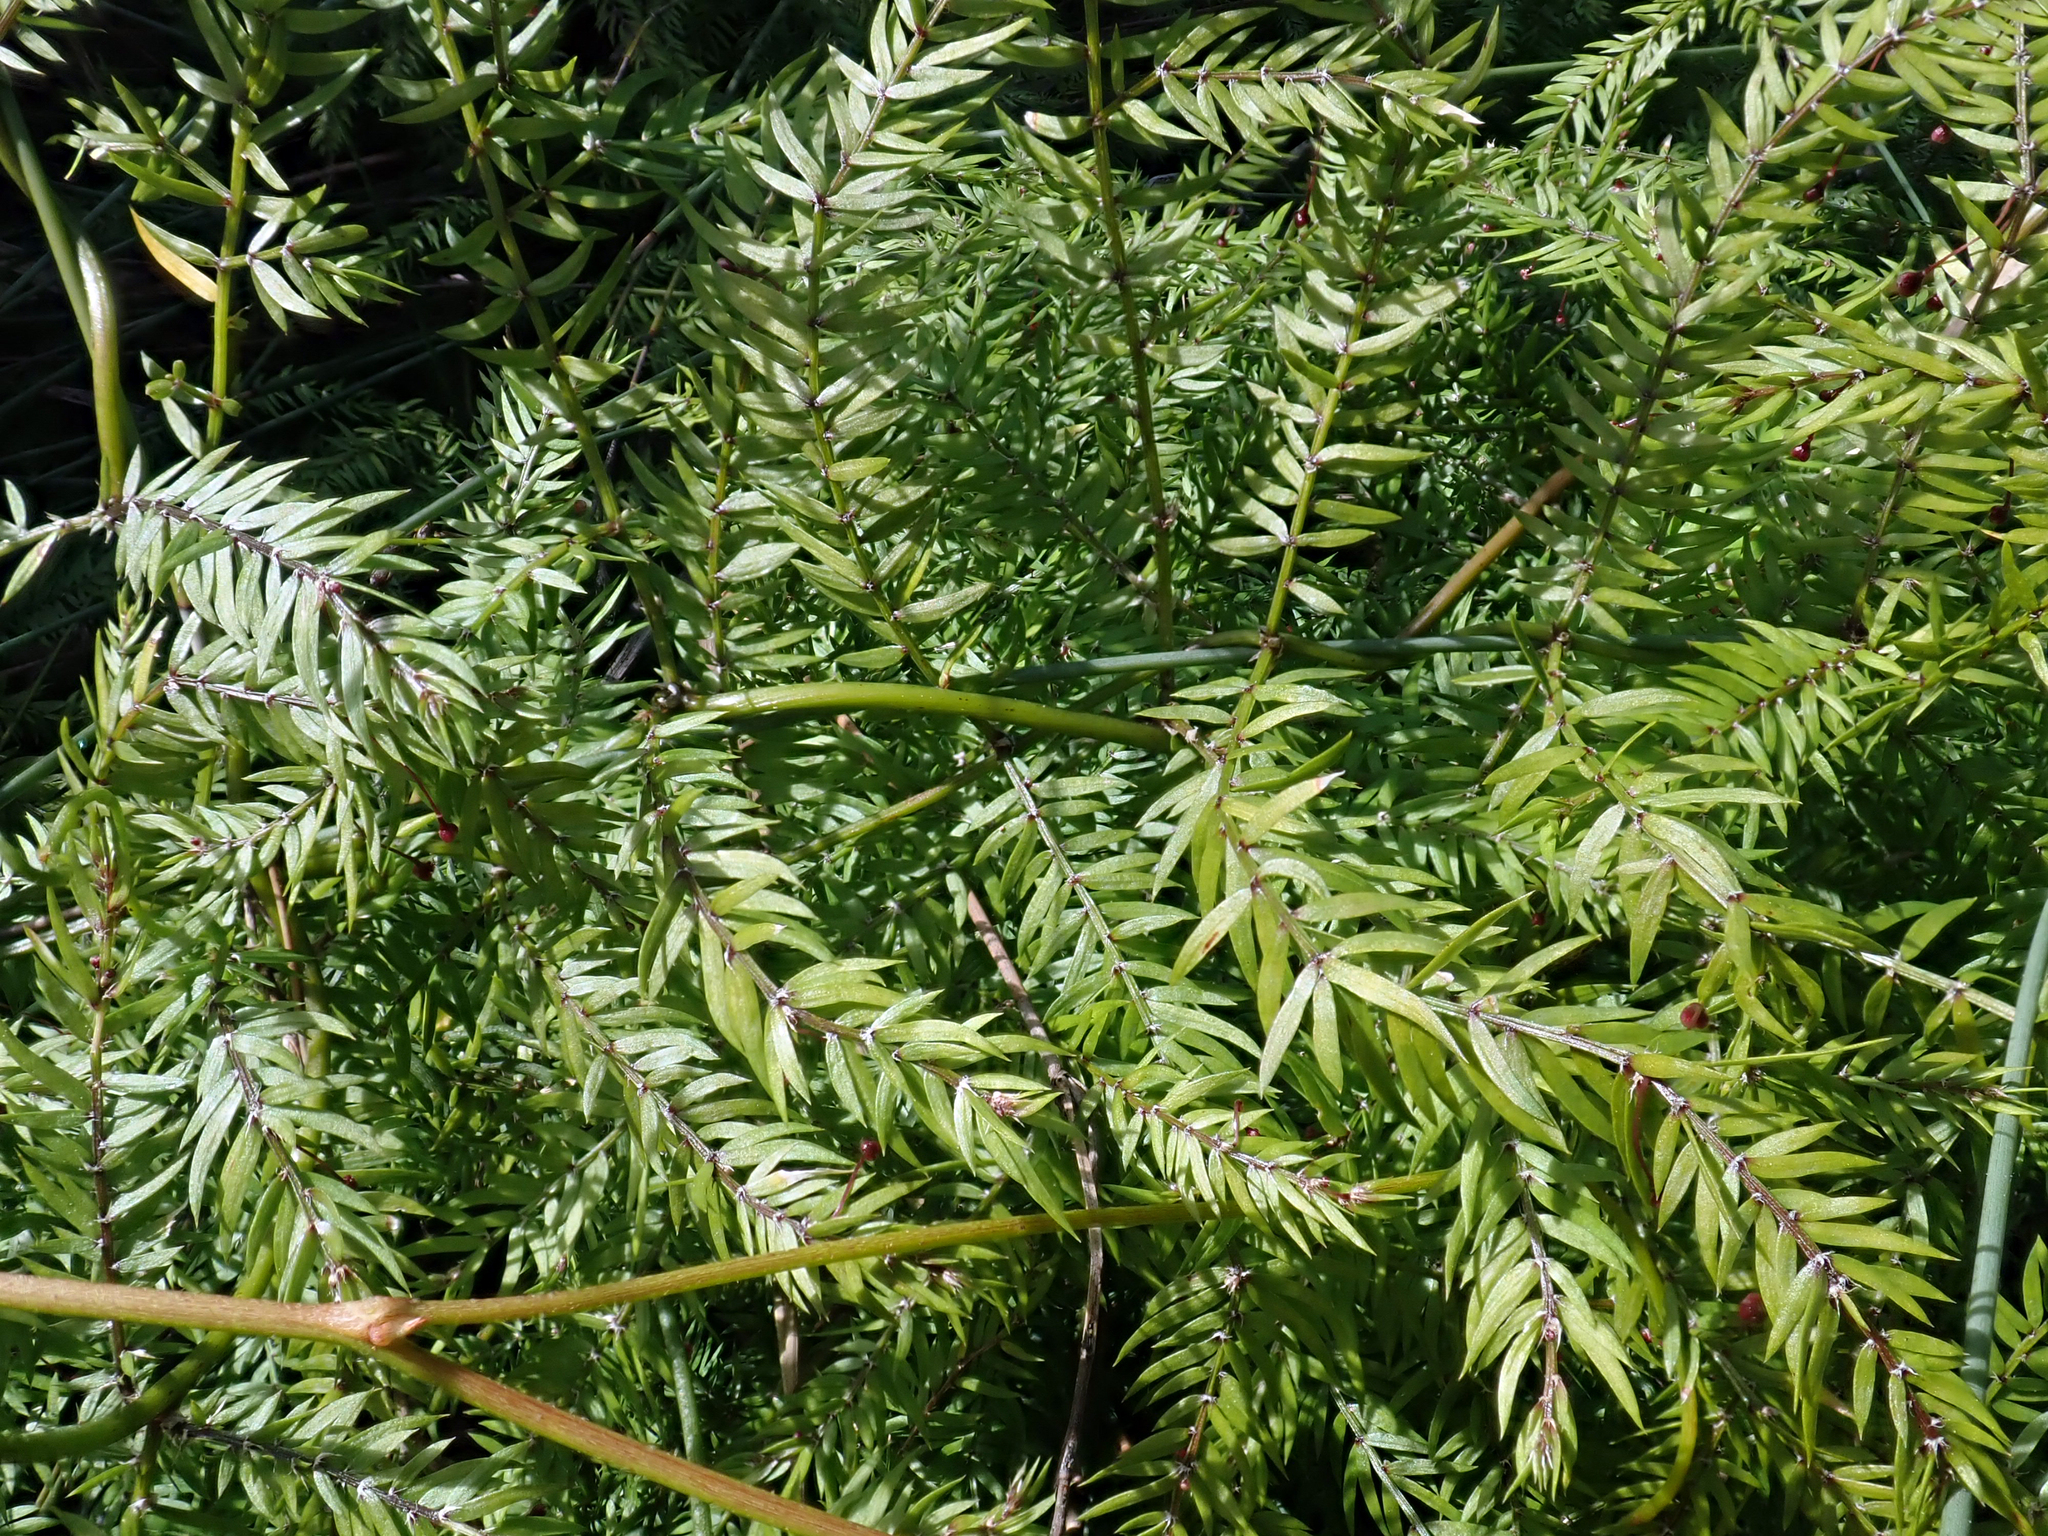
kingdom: Plantae
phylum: Tracheophyta
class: Liliopsida
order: Asparagales
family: Asparagaceae
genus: Asparagus
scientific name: Asparagus scandens
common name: Asparagus-fern
